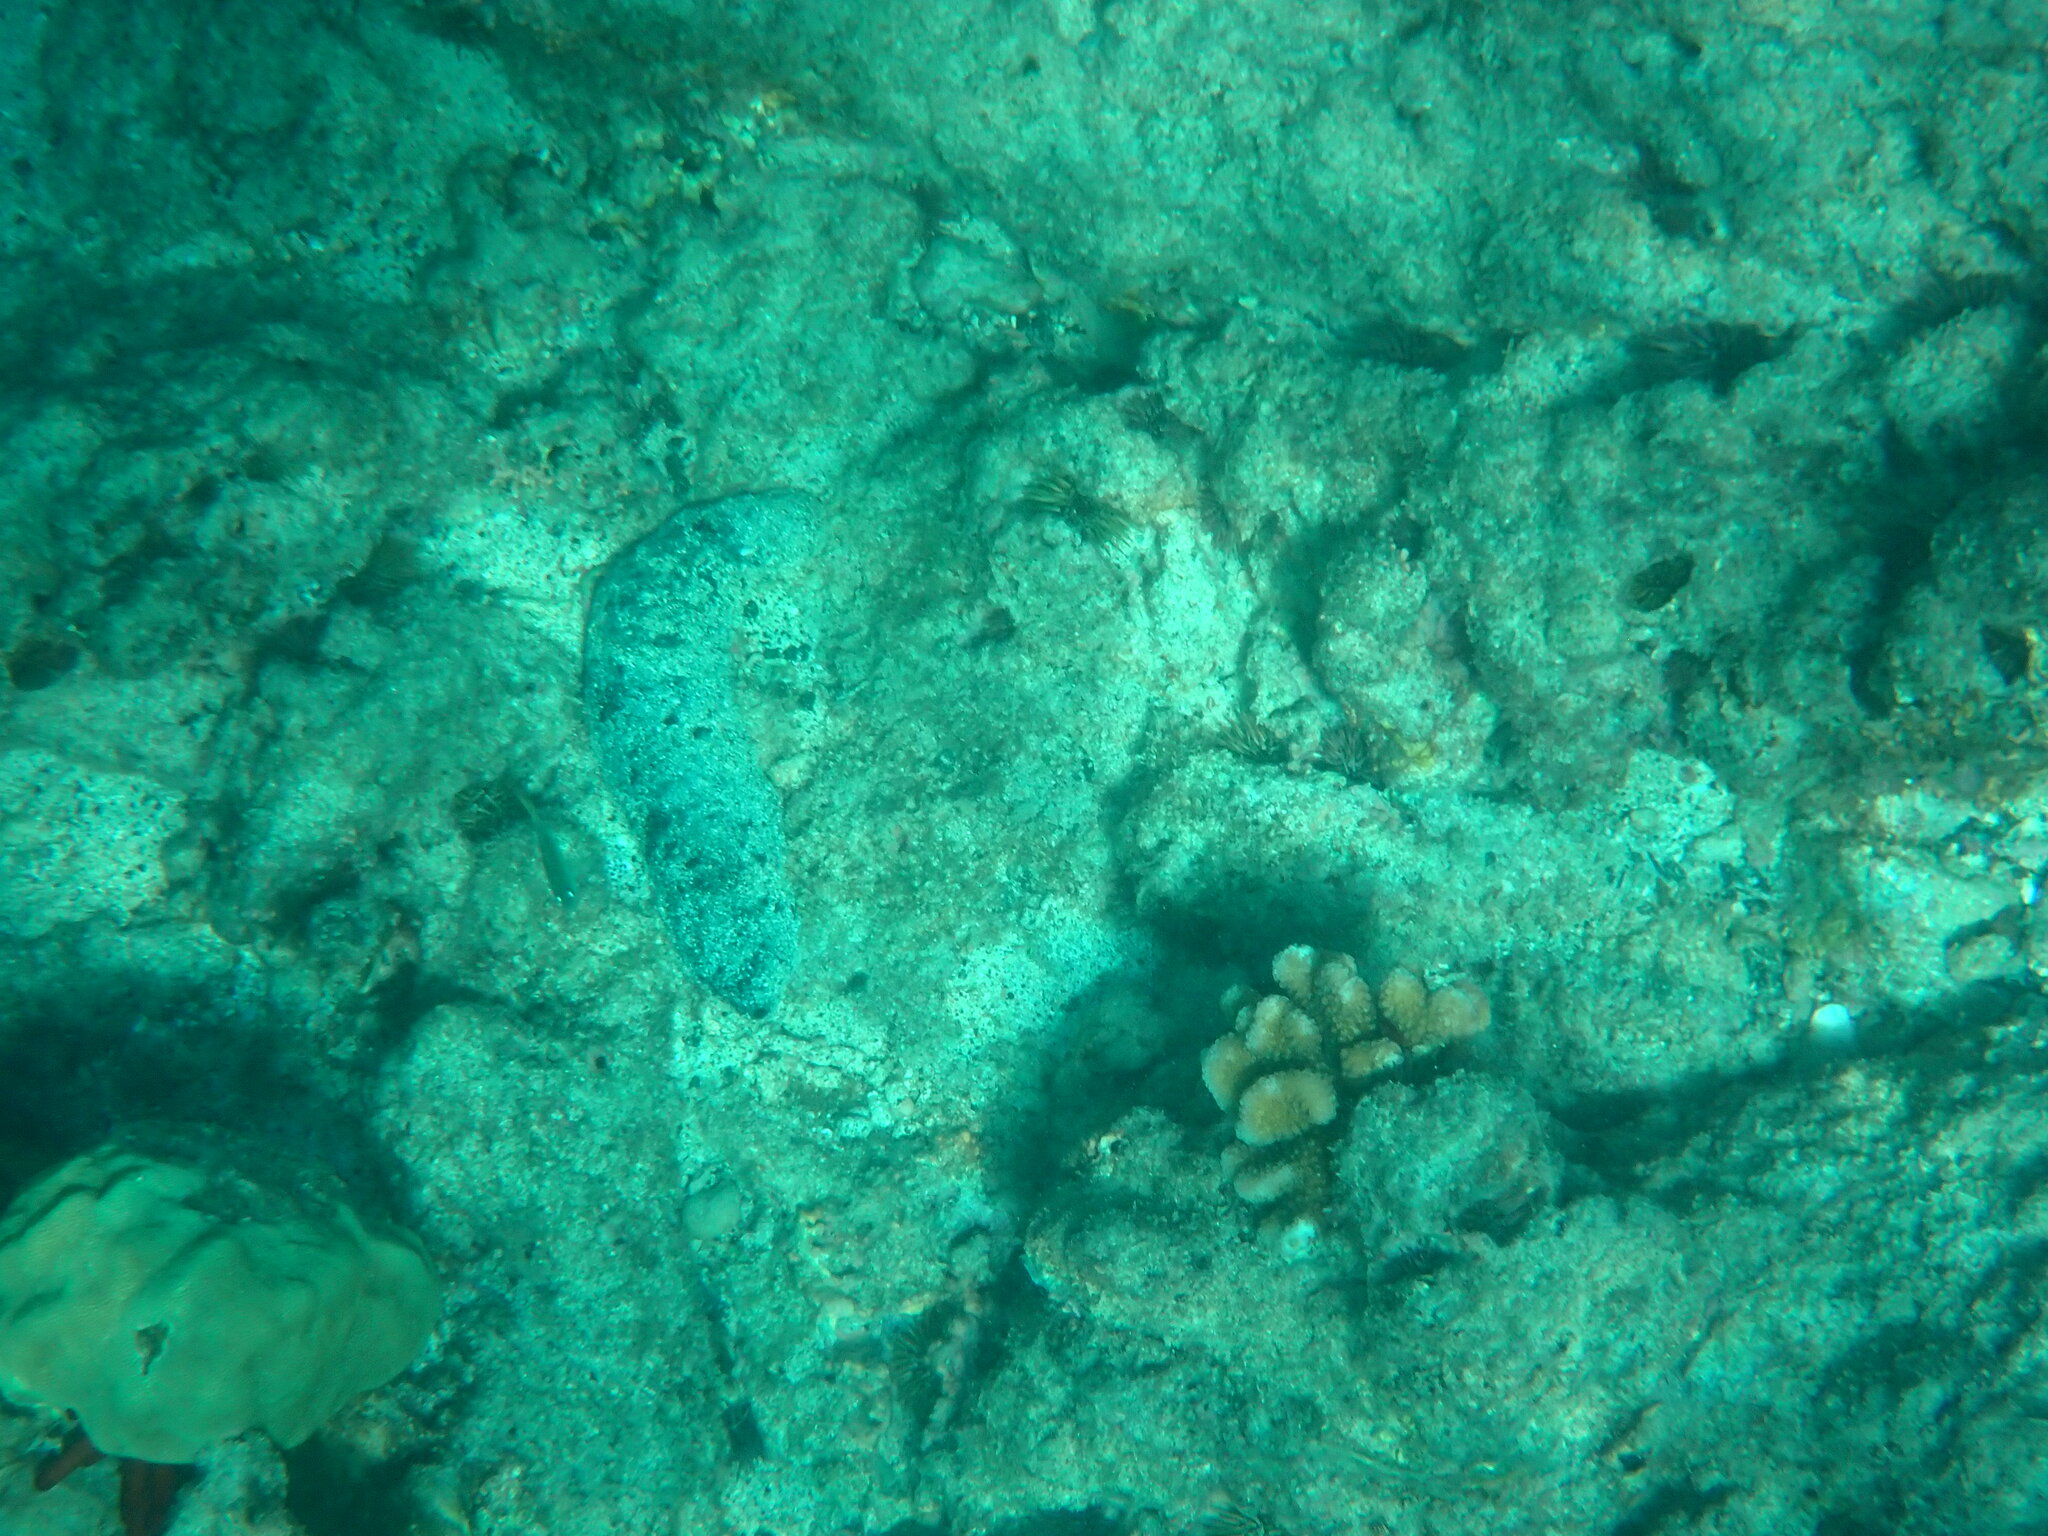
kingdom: Animalia
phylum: Echinodermata
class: Holothuroidea
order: Holothuriida
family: Holothuriidae
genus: Holothuria
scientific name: Holothuria atra
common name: Lollyfish
